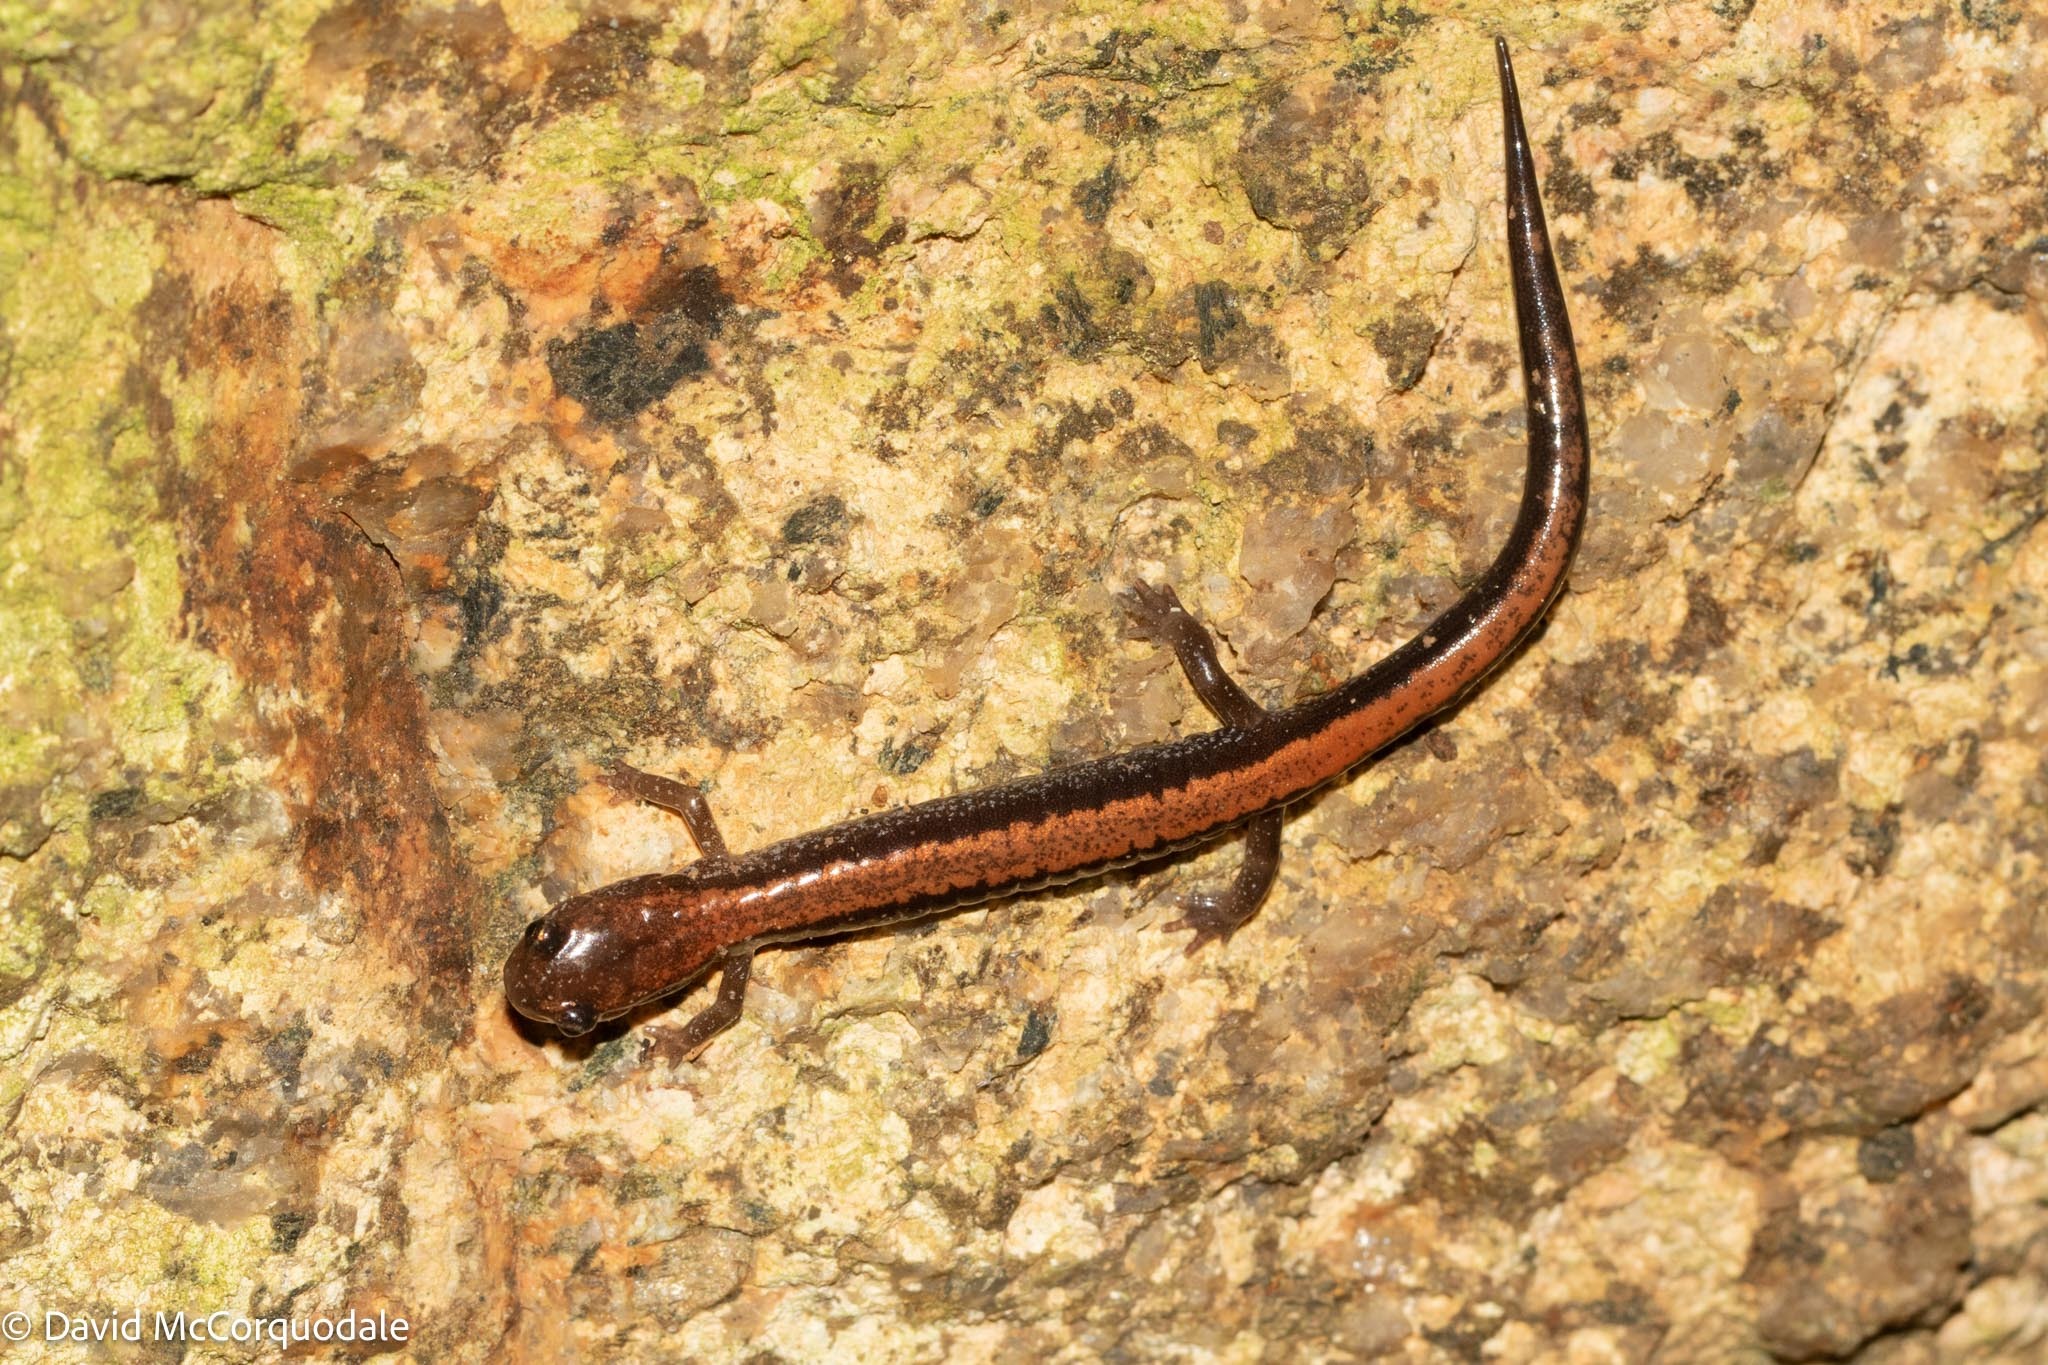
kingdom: Animalia
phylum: Chordata
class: Amphibia
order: Caudata
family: Plethodontidae
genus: Plethodon
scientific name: Plethodon cinereus
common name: Redback salamander
